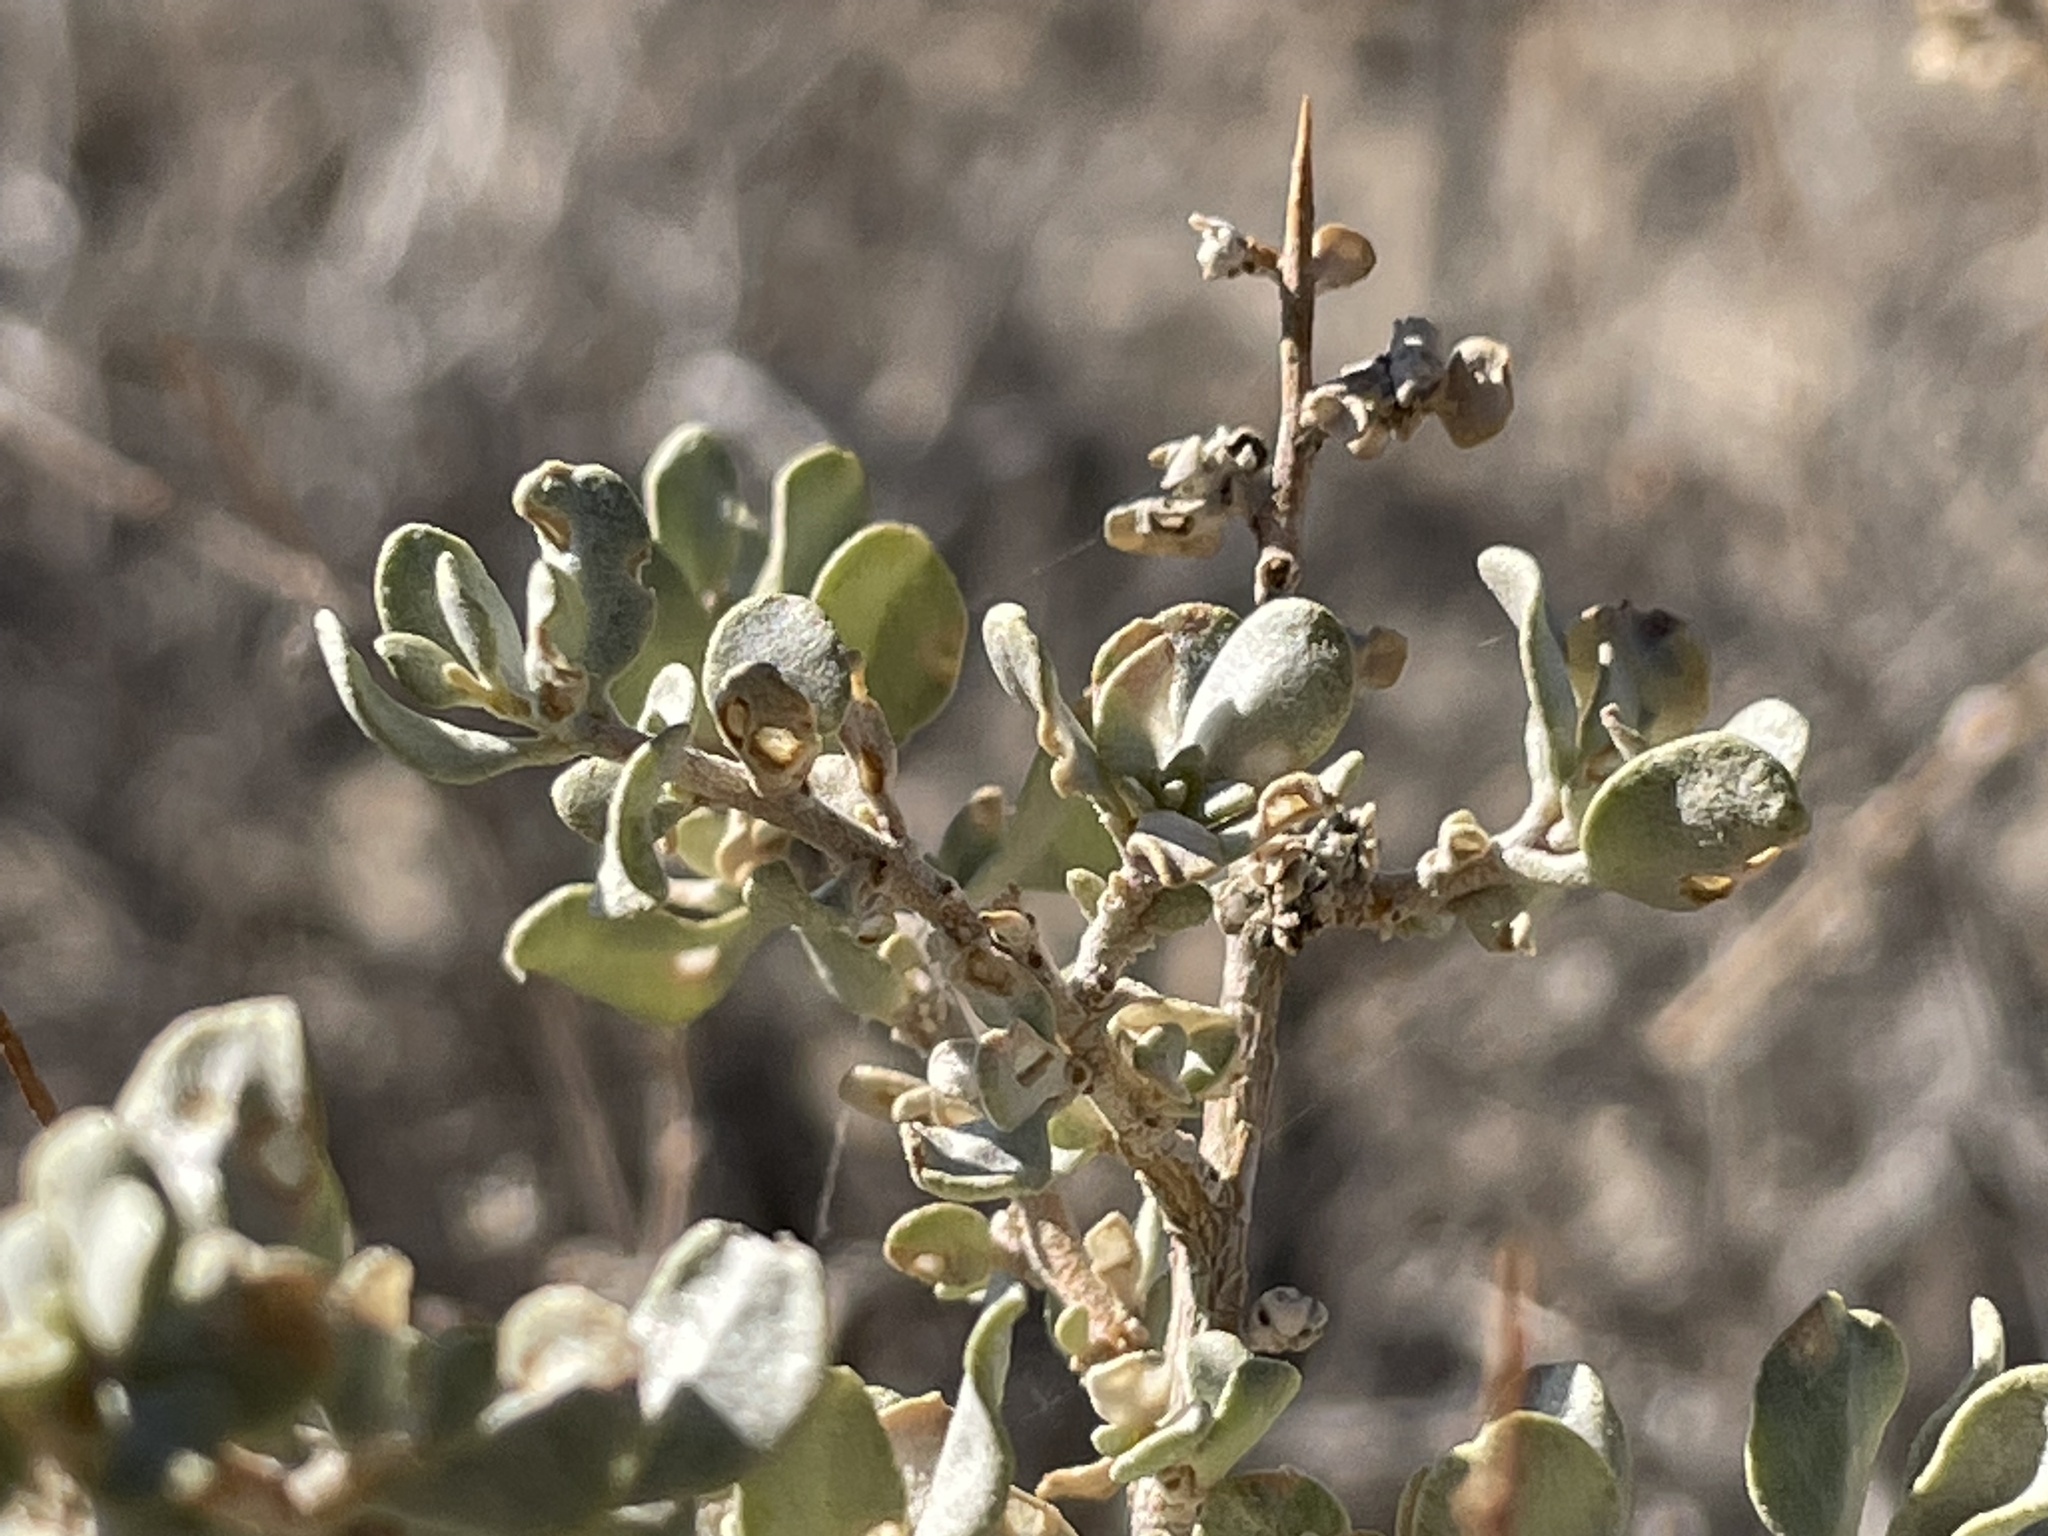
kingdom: Plantae
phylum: Tracheophyta
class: Magnoliopsida
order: Caryophyllales
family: Amaranthaceae
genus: Atriplex
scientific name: Atriplex confertifolia
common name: Shadscale
